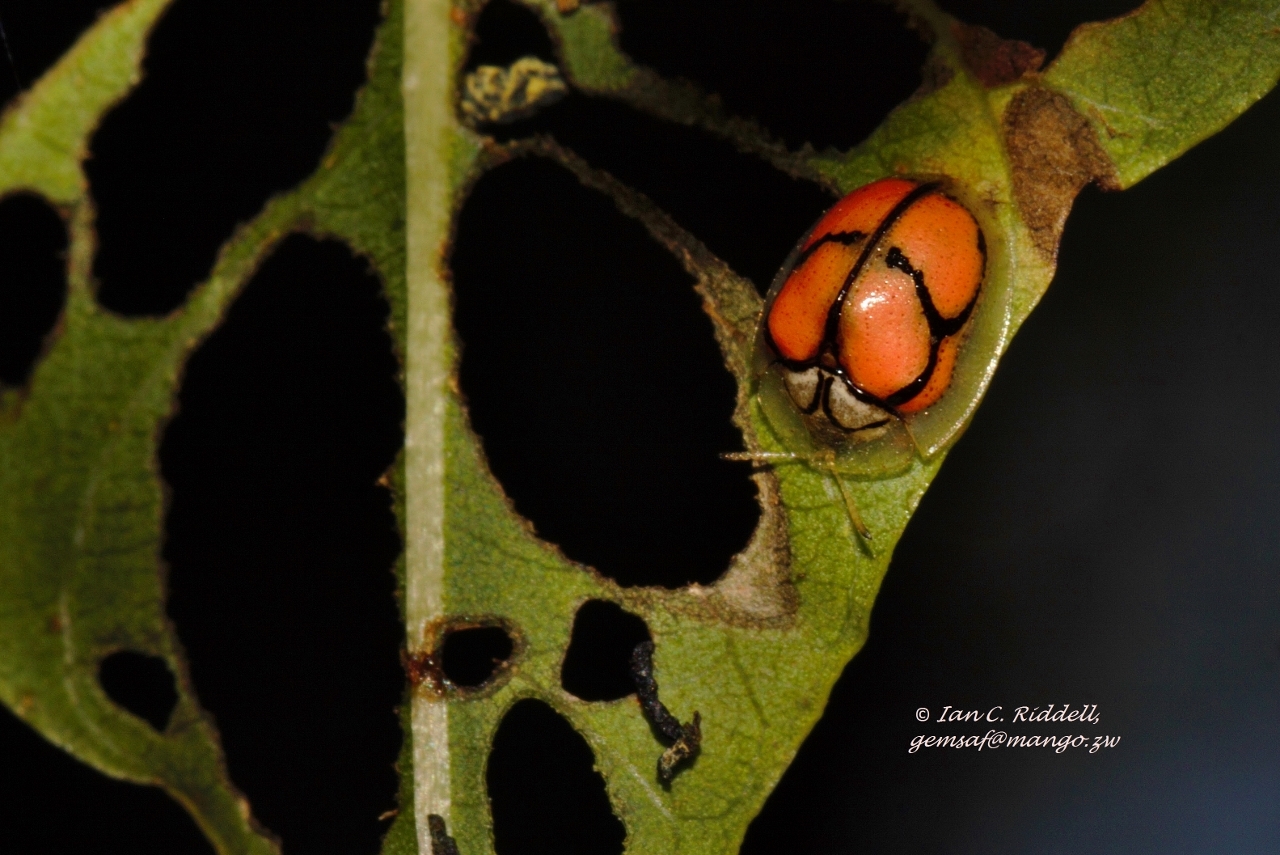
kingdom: Animalia
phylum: Arthropoda
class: Insecta
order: Coleoptera
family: Chrysomelidae
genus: Chiridopsis
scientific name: Chiridopsis nigrosepta
